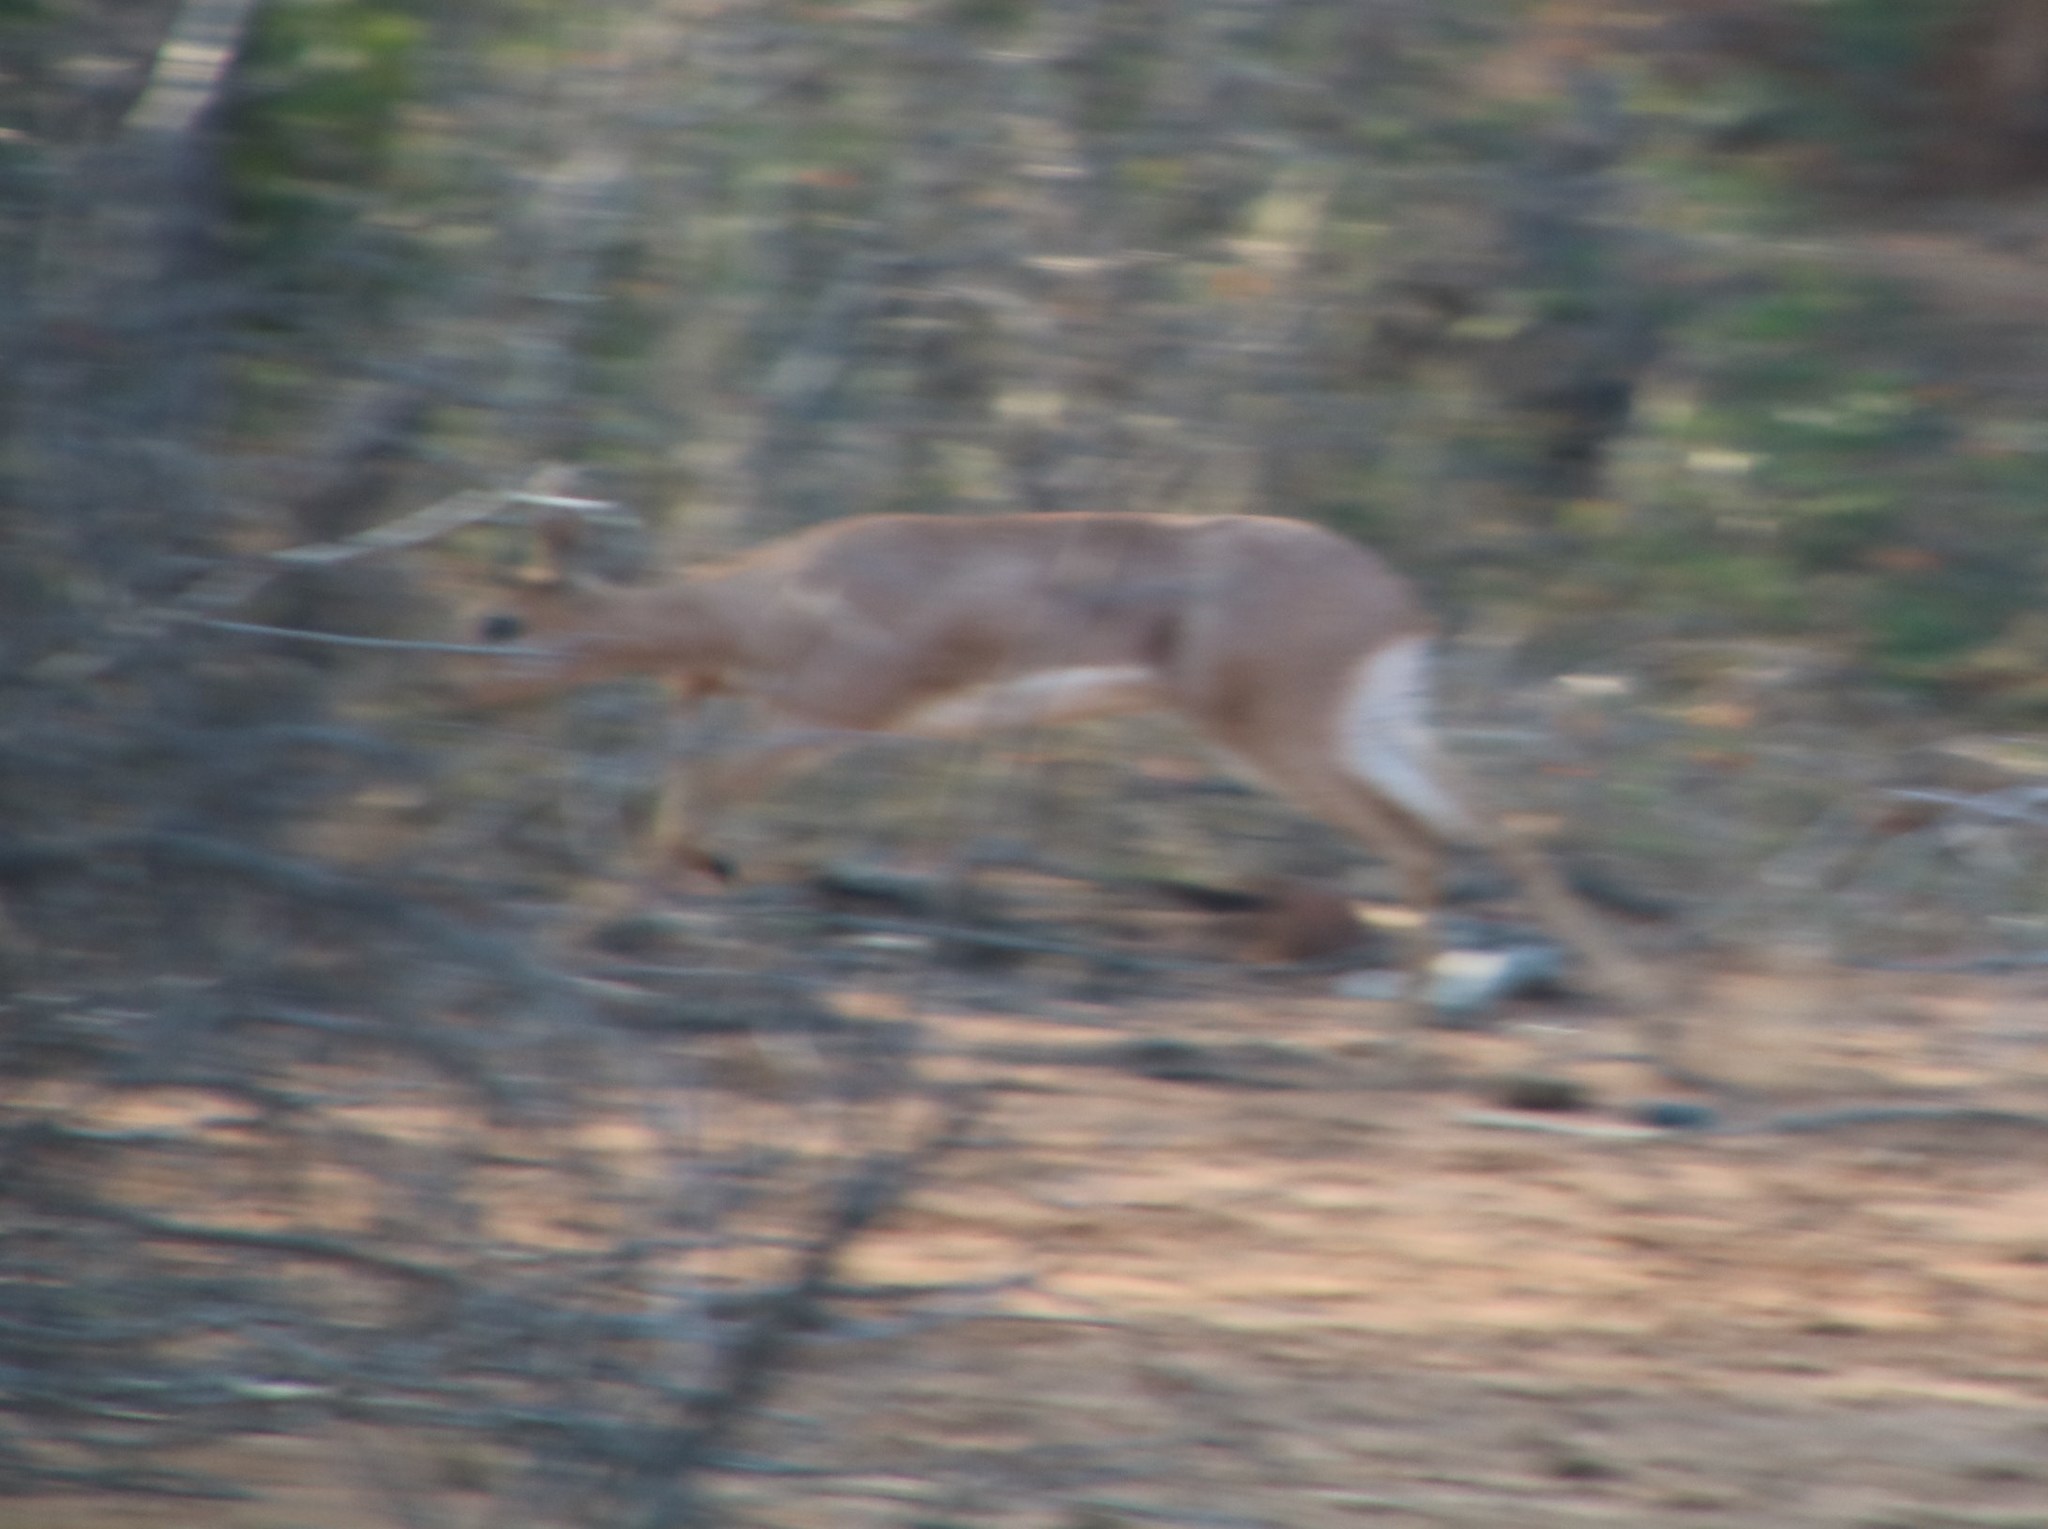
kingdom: Animalia
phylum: Chordata
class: Mammalia
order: Artiodactyla
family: Bovidae
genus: Raphicerus
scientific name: Raphicerus campestris
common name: Steenbok
